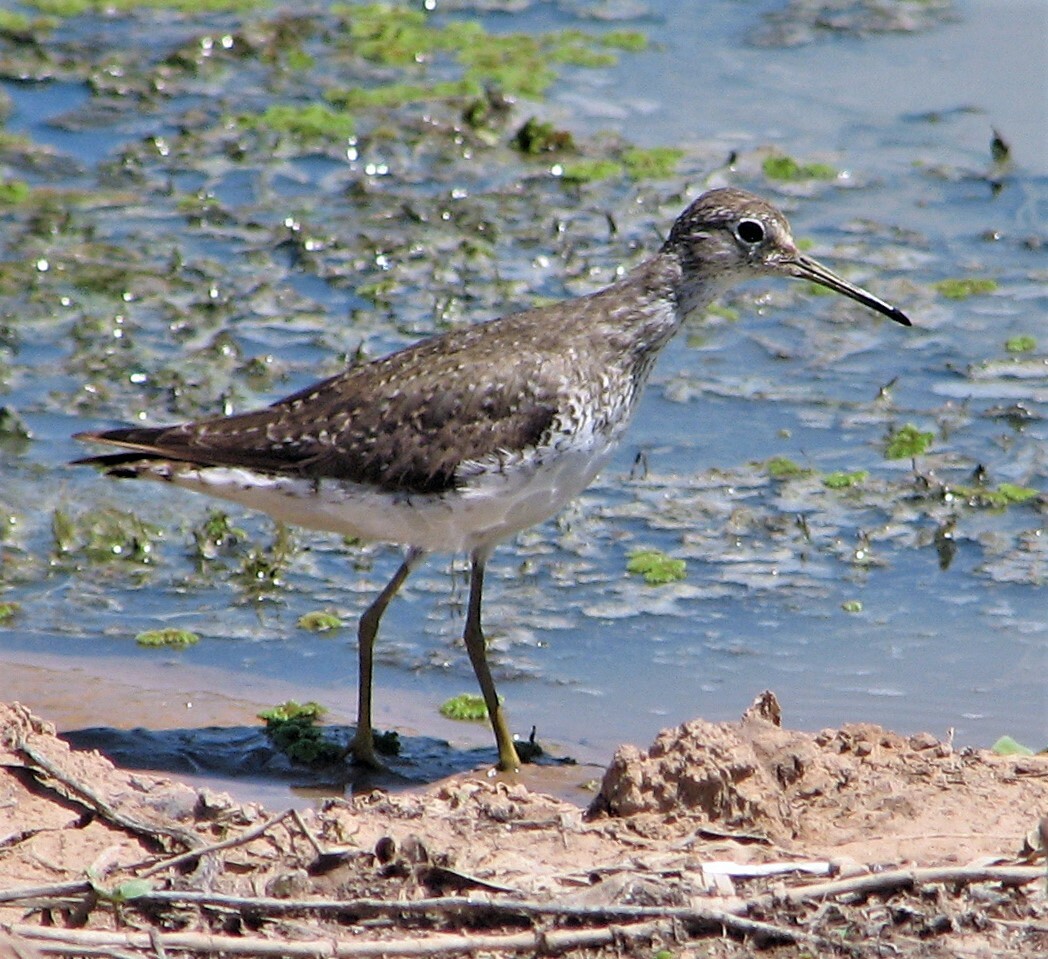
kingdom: Animalia
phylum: Chordata
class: Aves
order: Charadriiformes
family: Scolopacidae
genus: Tringa
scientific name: Tringa solitaria
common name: Solitary sandpiper
